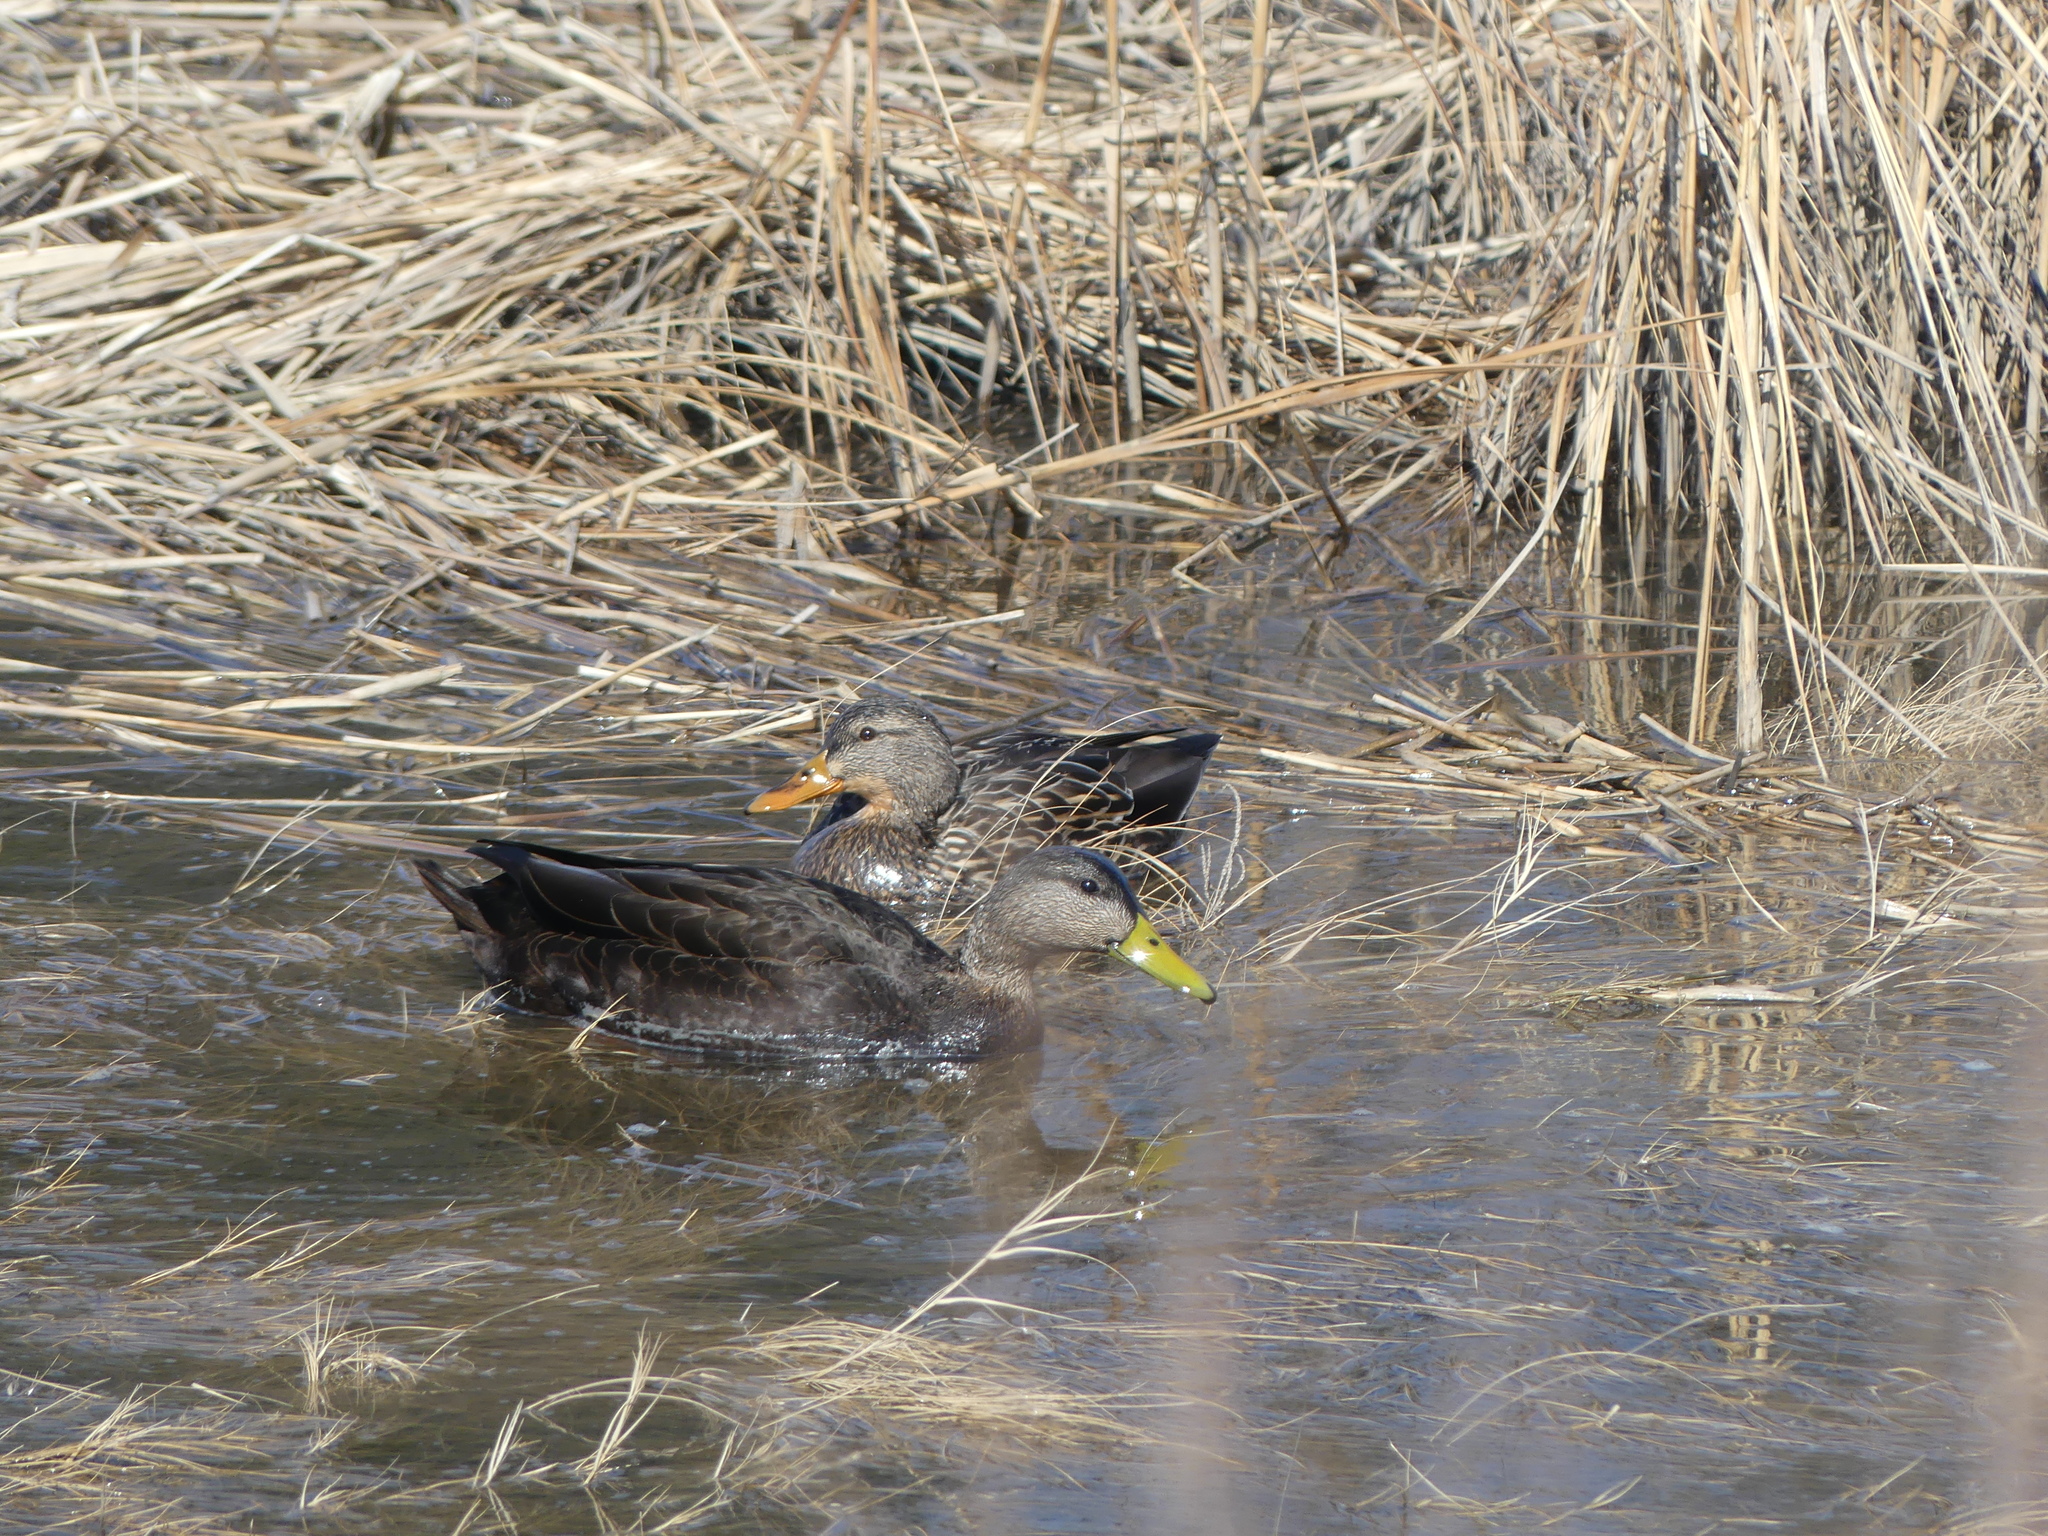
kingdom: Animalia
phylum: Chordata
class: Aves
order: Anseriformes
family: Anatidae
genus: Anas
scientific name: Anas rubripes
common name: American black duck
